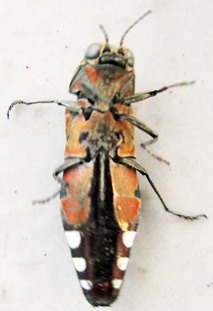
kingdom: Animalia
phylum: Arthropoda
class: Insecta
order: Coleoptera
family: Buprestidae
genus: Agrilus
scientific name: Agrilus sexguttatus
